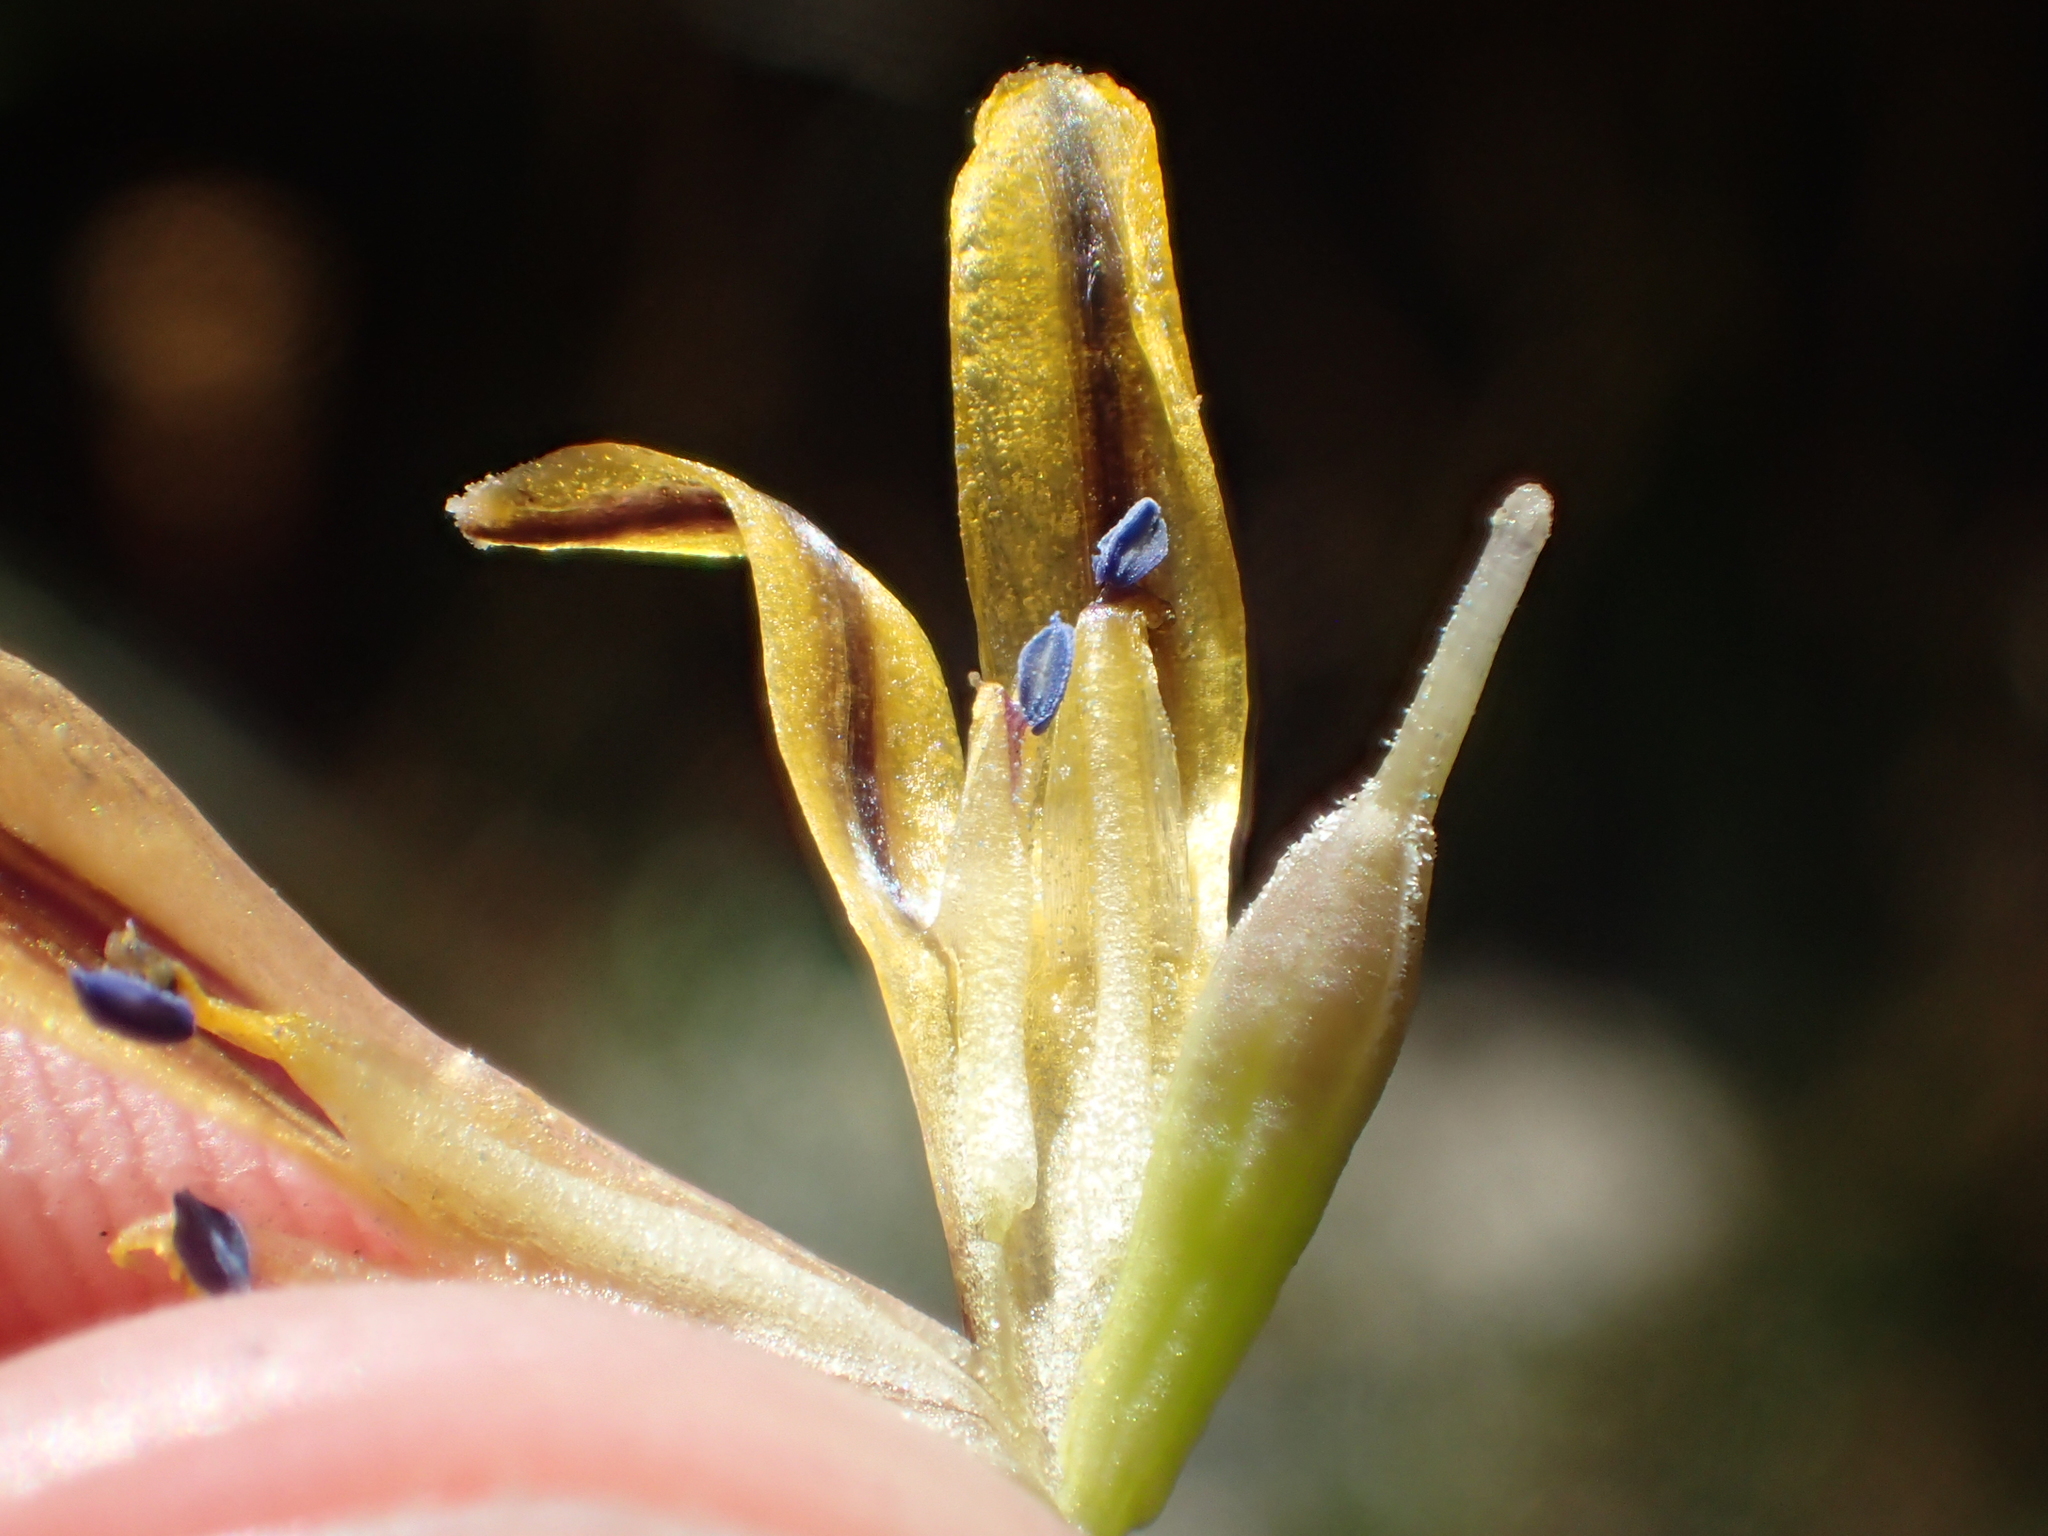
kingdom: Plantae
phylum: Tracheophyta
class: Liliopsida
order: Asparagales
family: Asparagaceae
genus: Triteleia
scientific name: Triteleia ixioides
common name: Yellow-brodiaea
